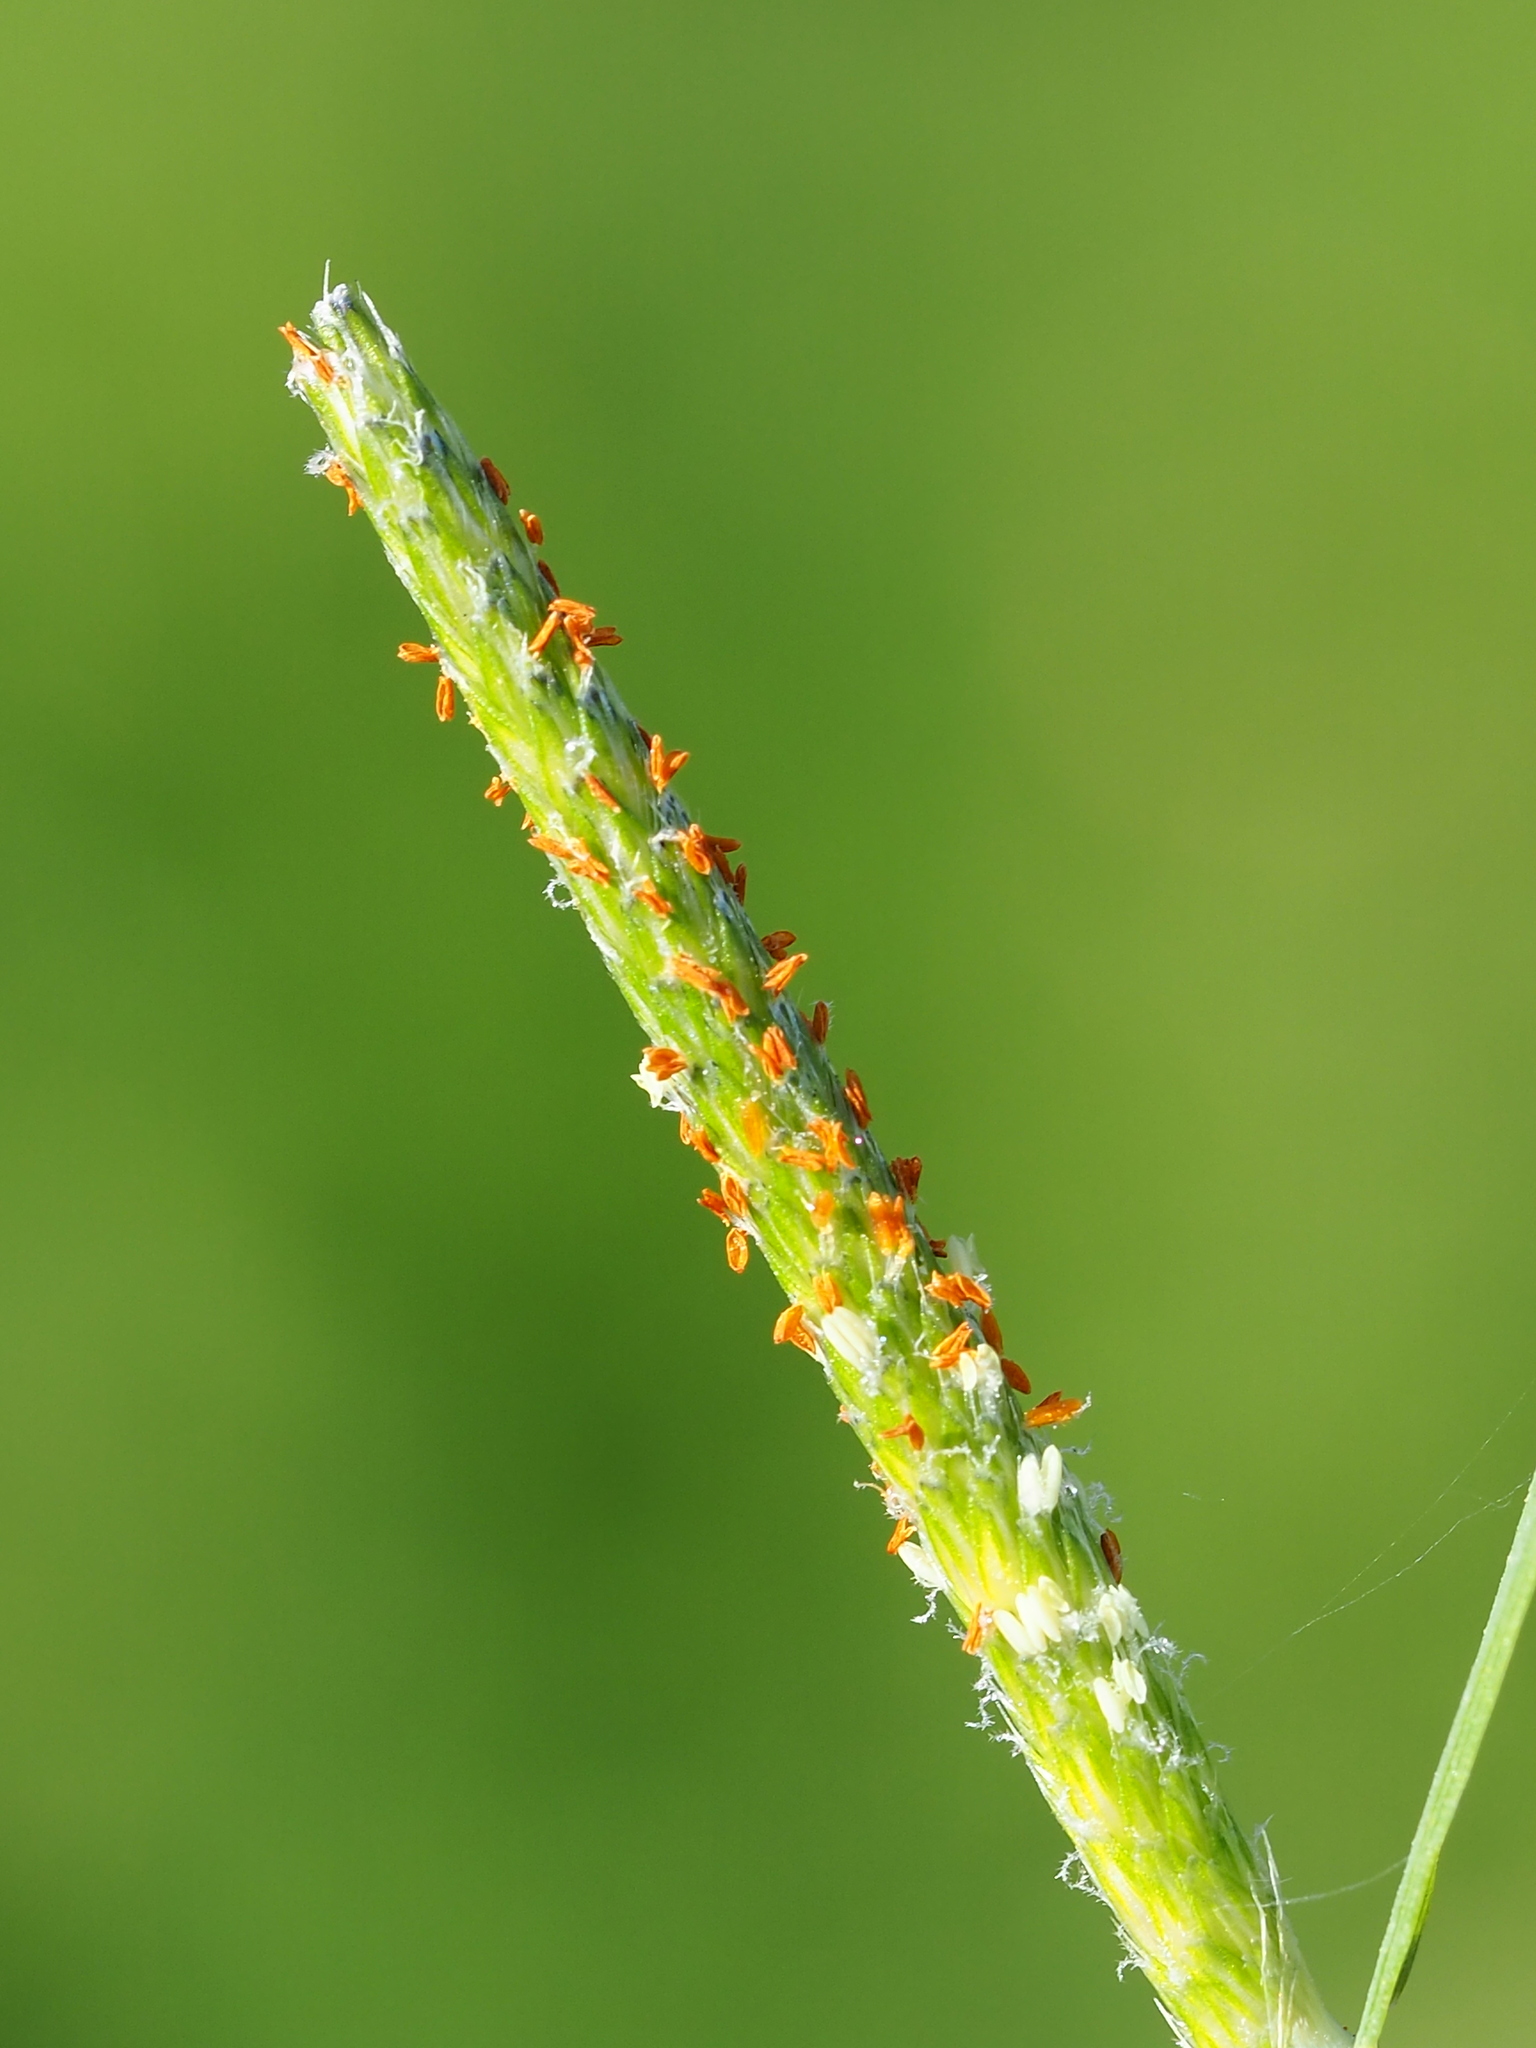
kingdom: Plantae
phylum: Tracheophyta
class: Liliopsida
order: Poales
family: Poaceae
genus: Alopecurus
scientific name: Alopecurus aequalis
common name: Orange foxtail
